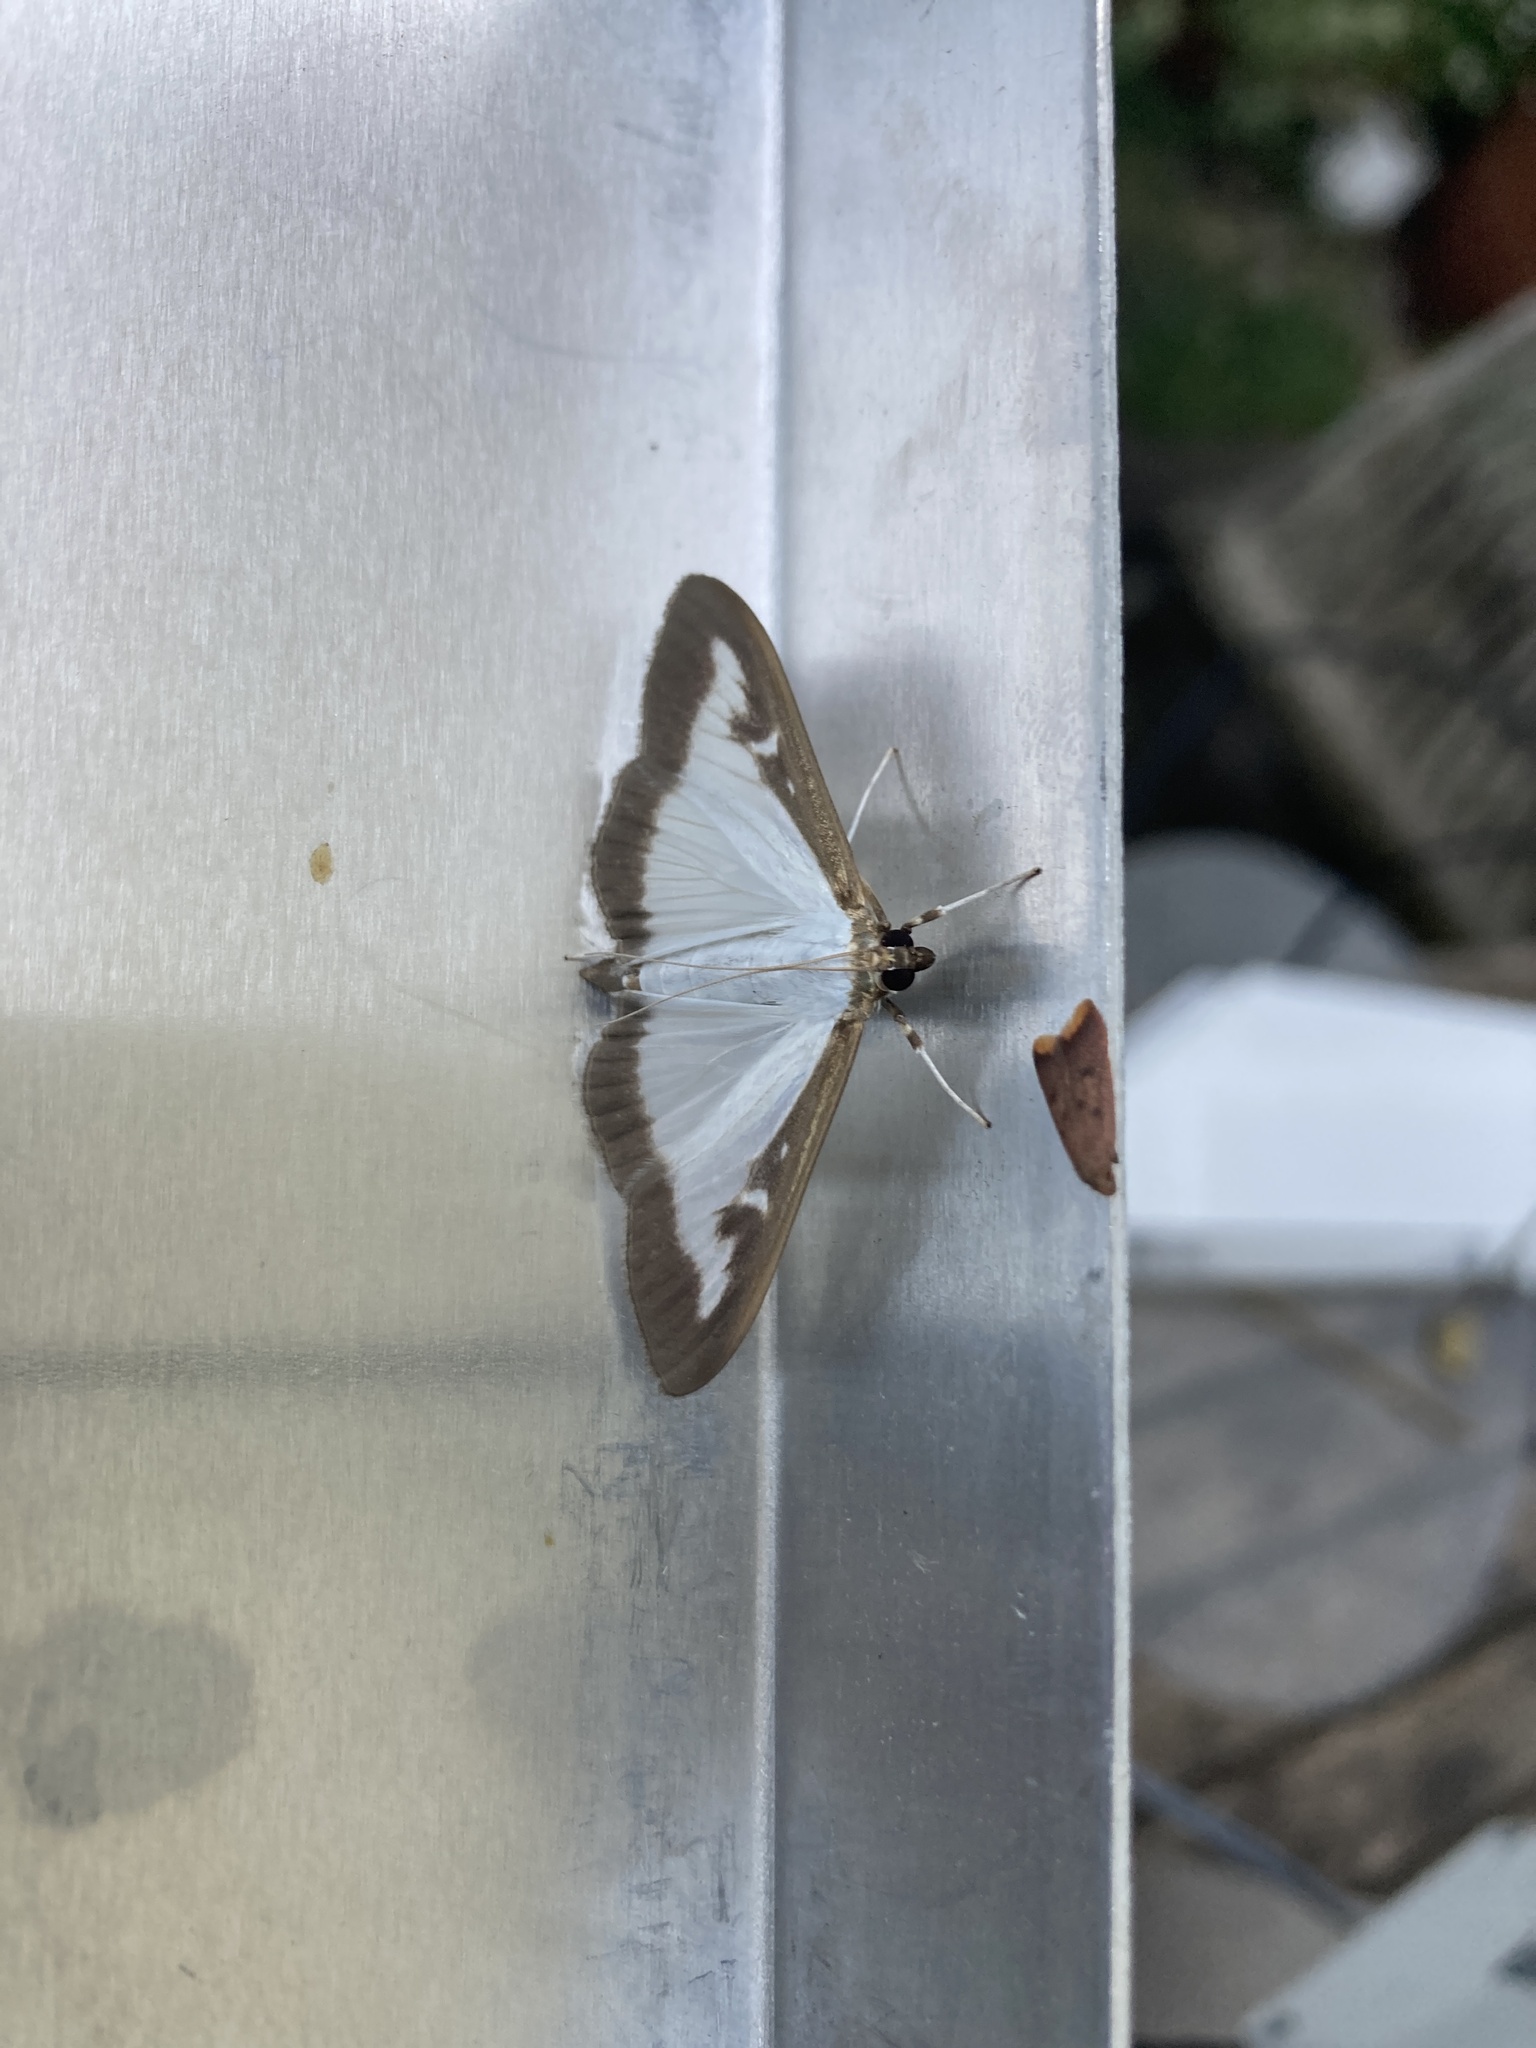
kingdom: Animalia
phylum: Arthropoda
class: Insecta
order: Lepidoptera
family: Crambidae
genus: Cydalima
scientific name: Cydalima perspectalis
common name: Box tree moth
